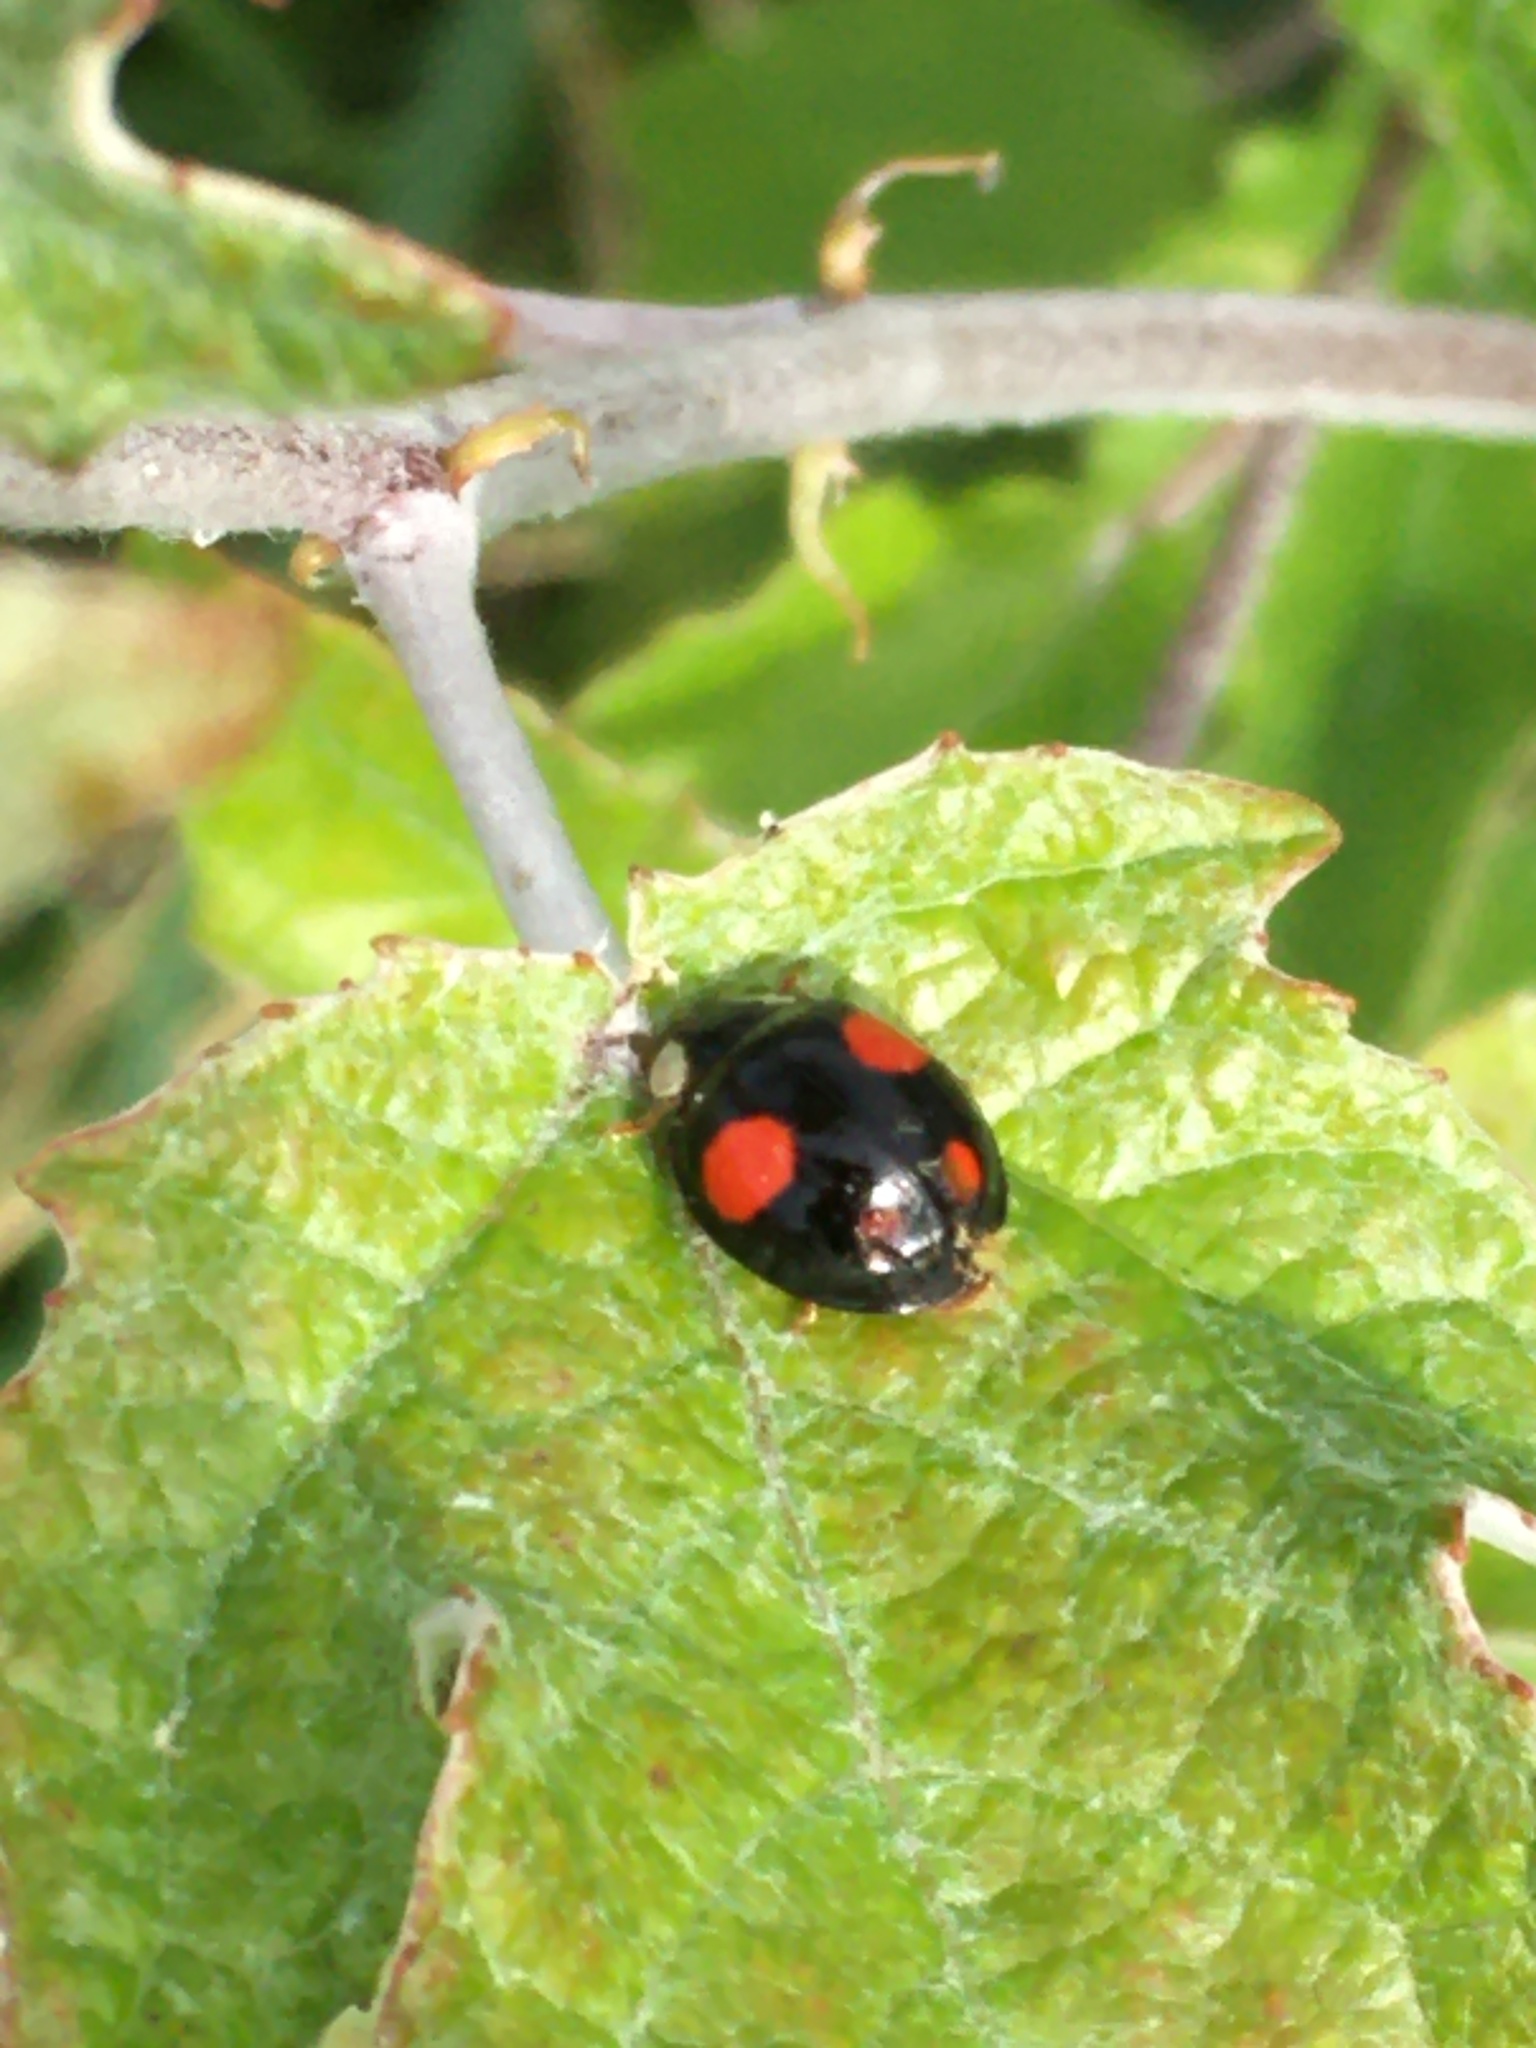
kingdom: Animalia
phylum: Arthropoda
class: Insecta
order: Coleoptera
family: Coccinellidae
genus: Harmonia
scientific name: Harmonia axyridis
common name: Harlequin ladybird
